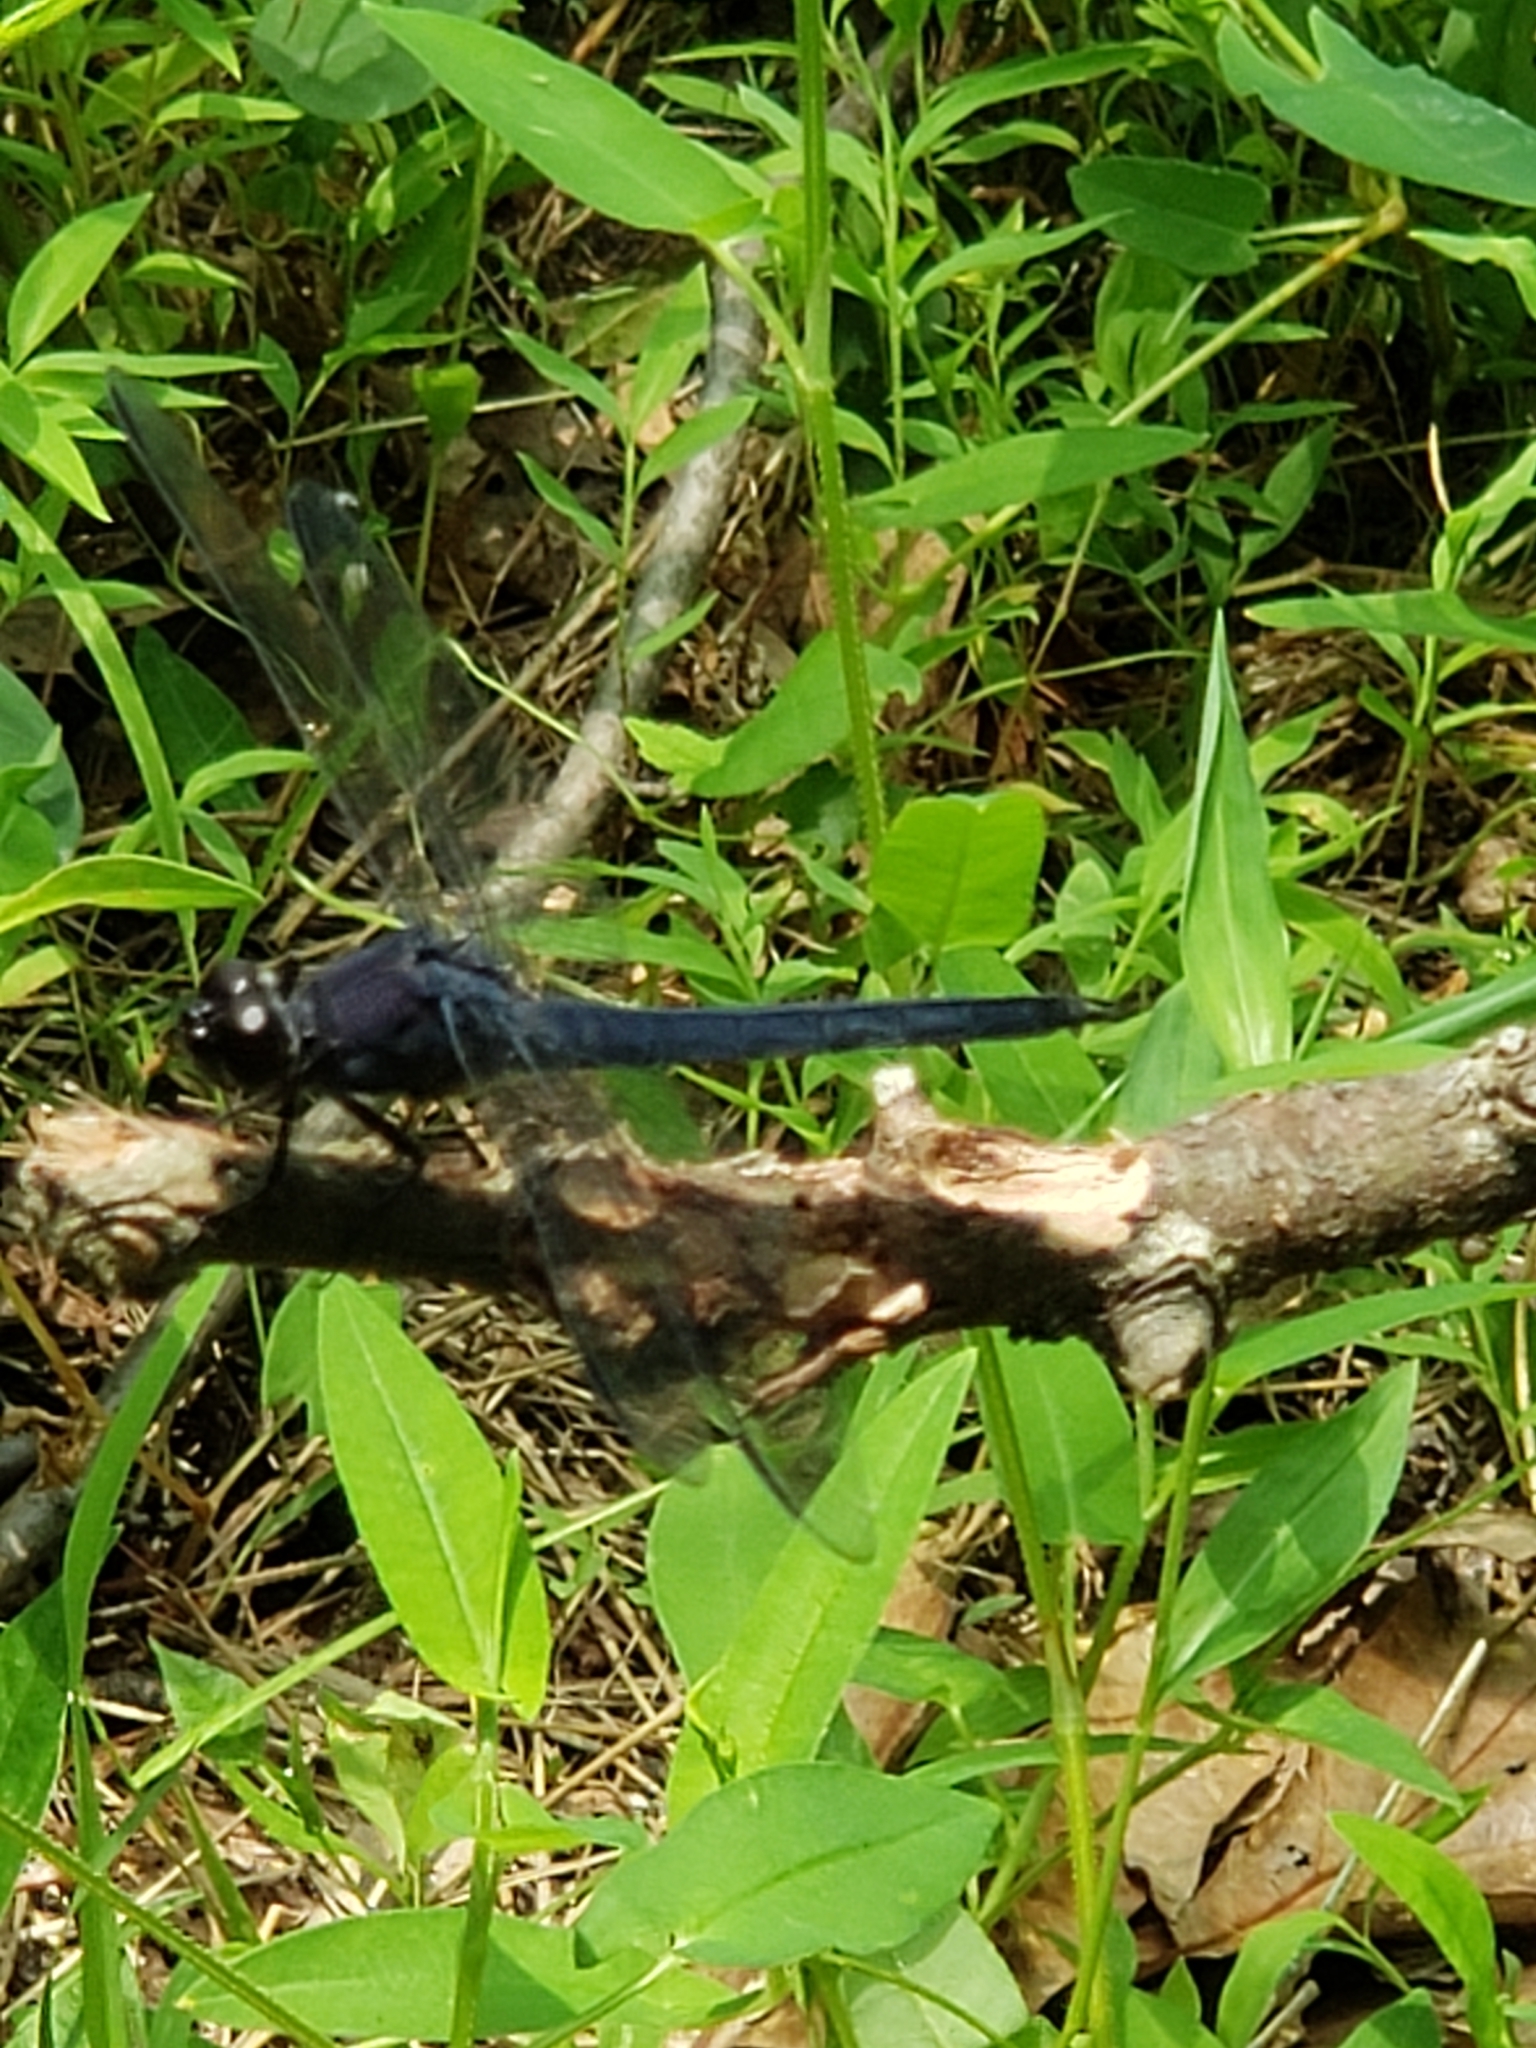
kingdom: Animalia
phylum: Arthropoda
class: Insecta
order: Odonata
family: Libellulidae
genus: Libellula
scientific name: Libellula incesta
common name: Slaty skimmer
